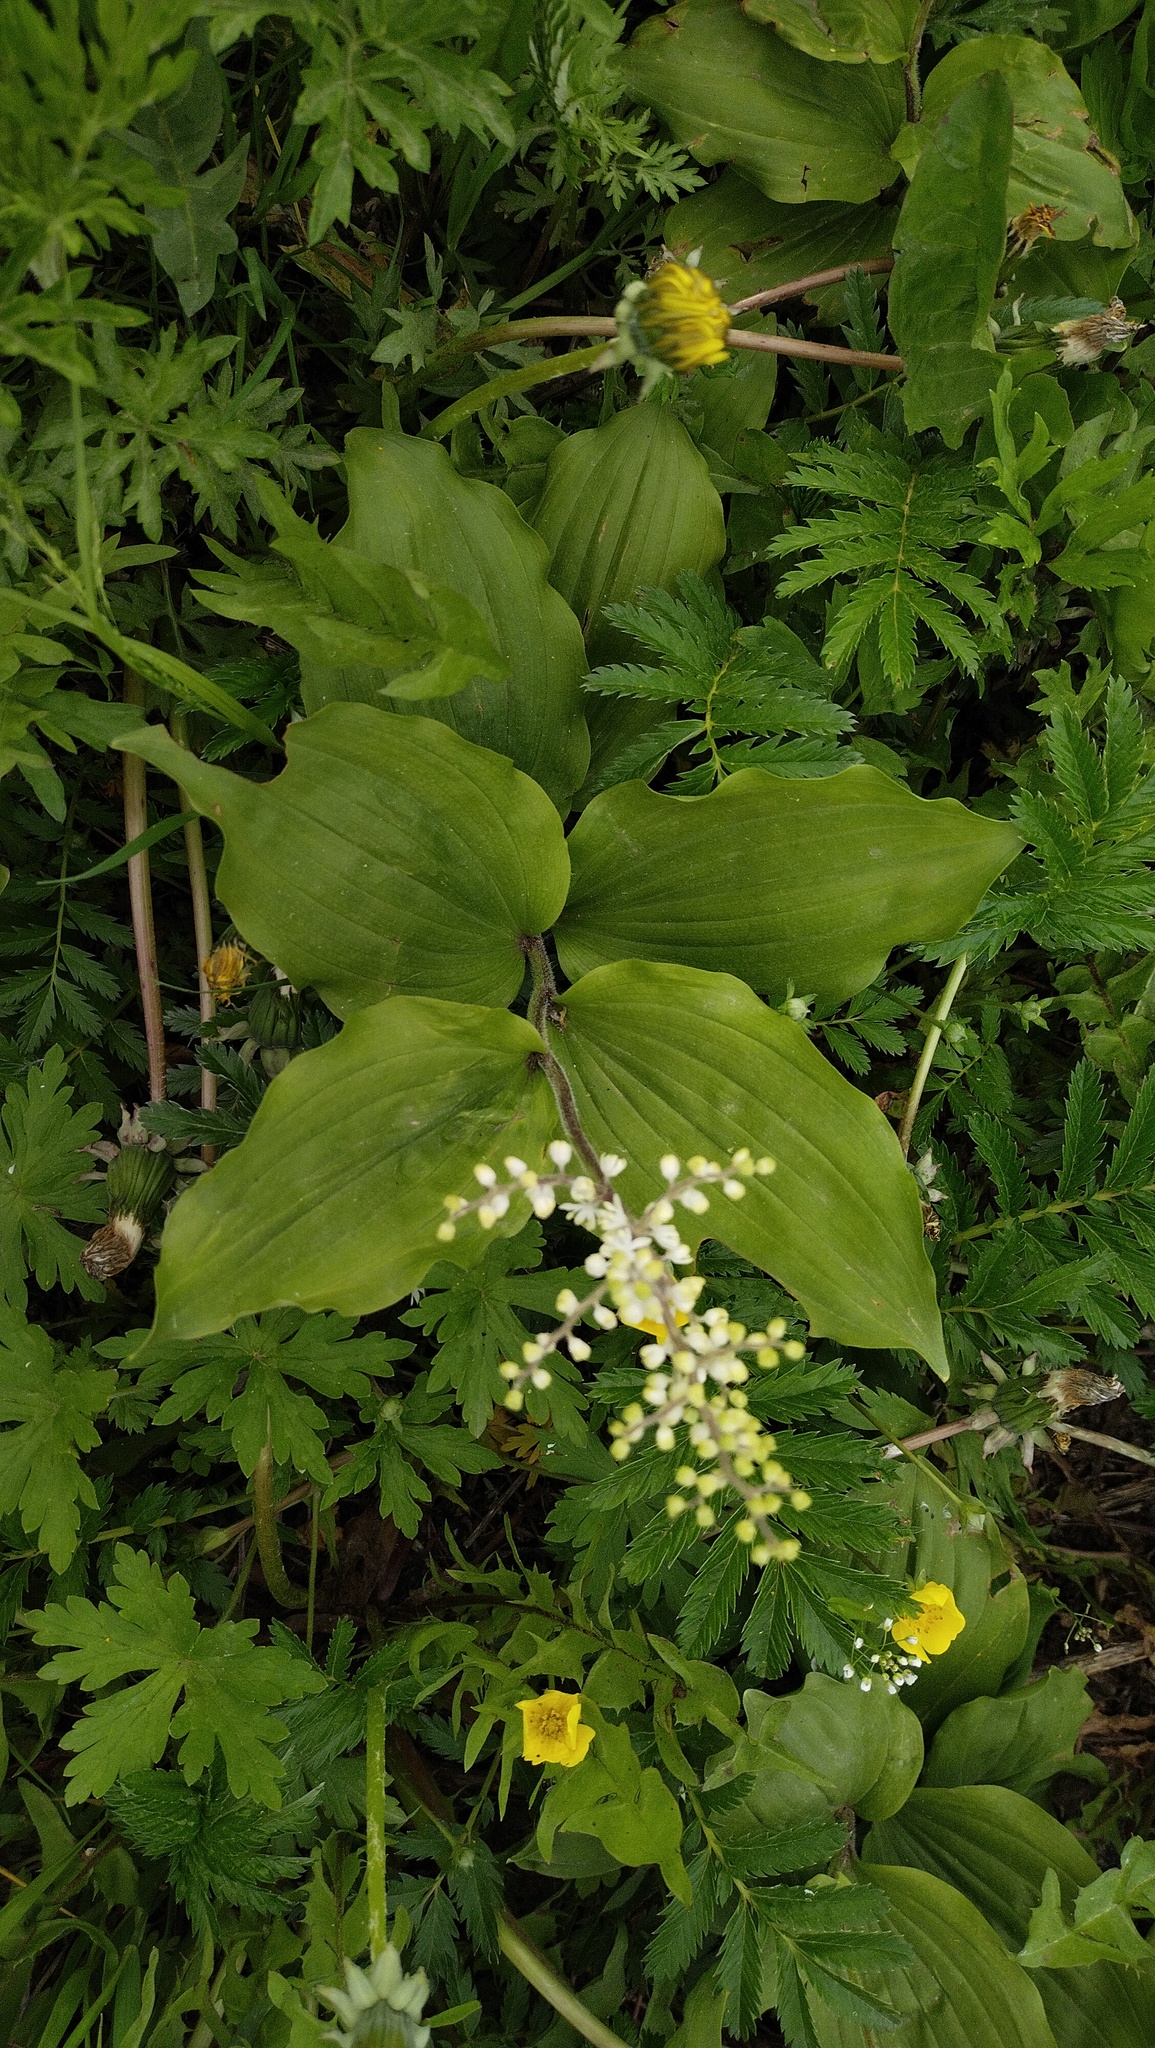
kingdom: Plantae
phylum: Tracheophyta
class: Liliopsida
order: Asparagales
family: Asparagaceae
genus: Maianthemum
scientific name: Maianthemum japonicum
